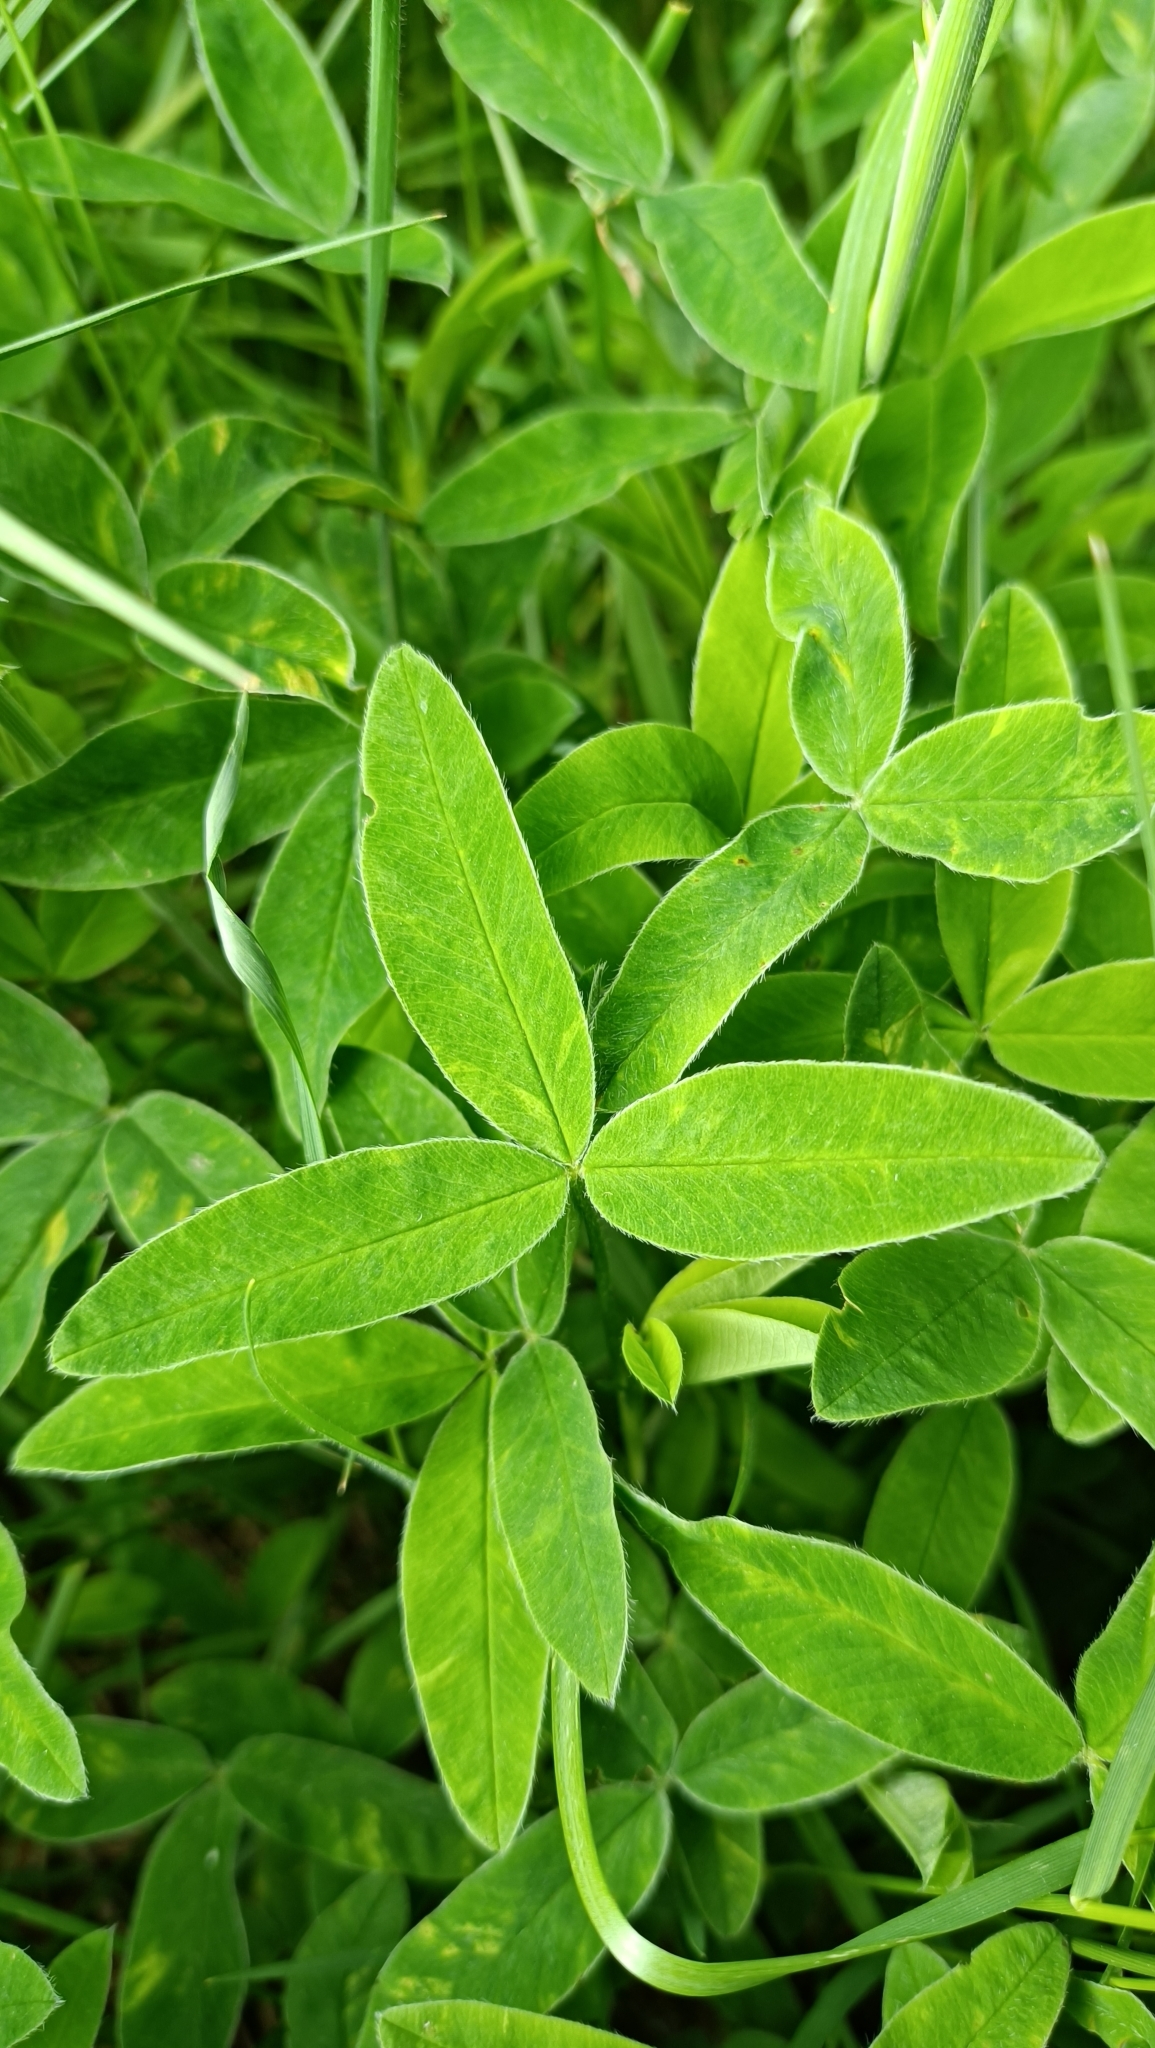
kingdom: Plantae
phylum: Tracheophyta
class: Magnoliopsida
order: Fabales
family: Fabaceae
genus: Trifolium
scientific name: Trifolium medium
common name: Zigzag clover
